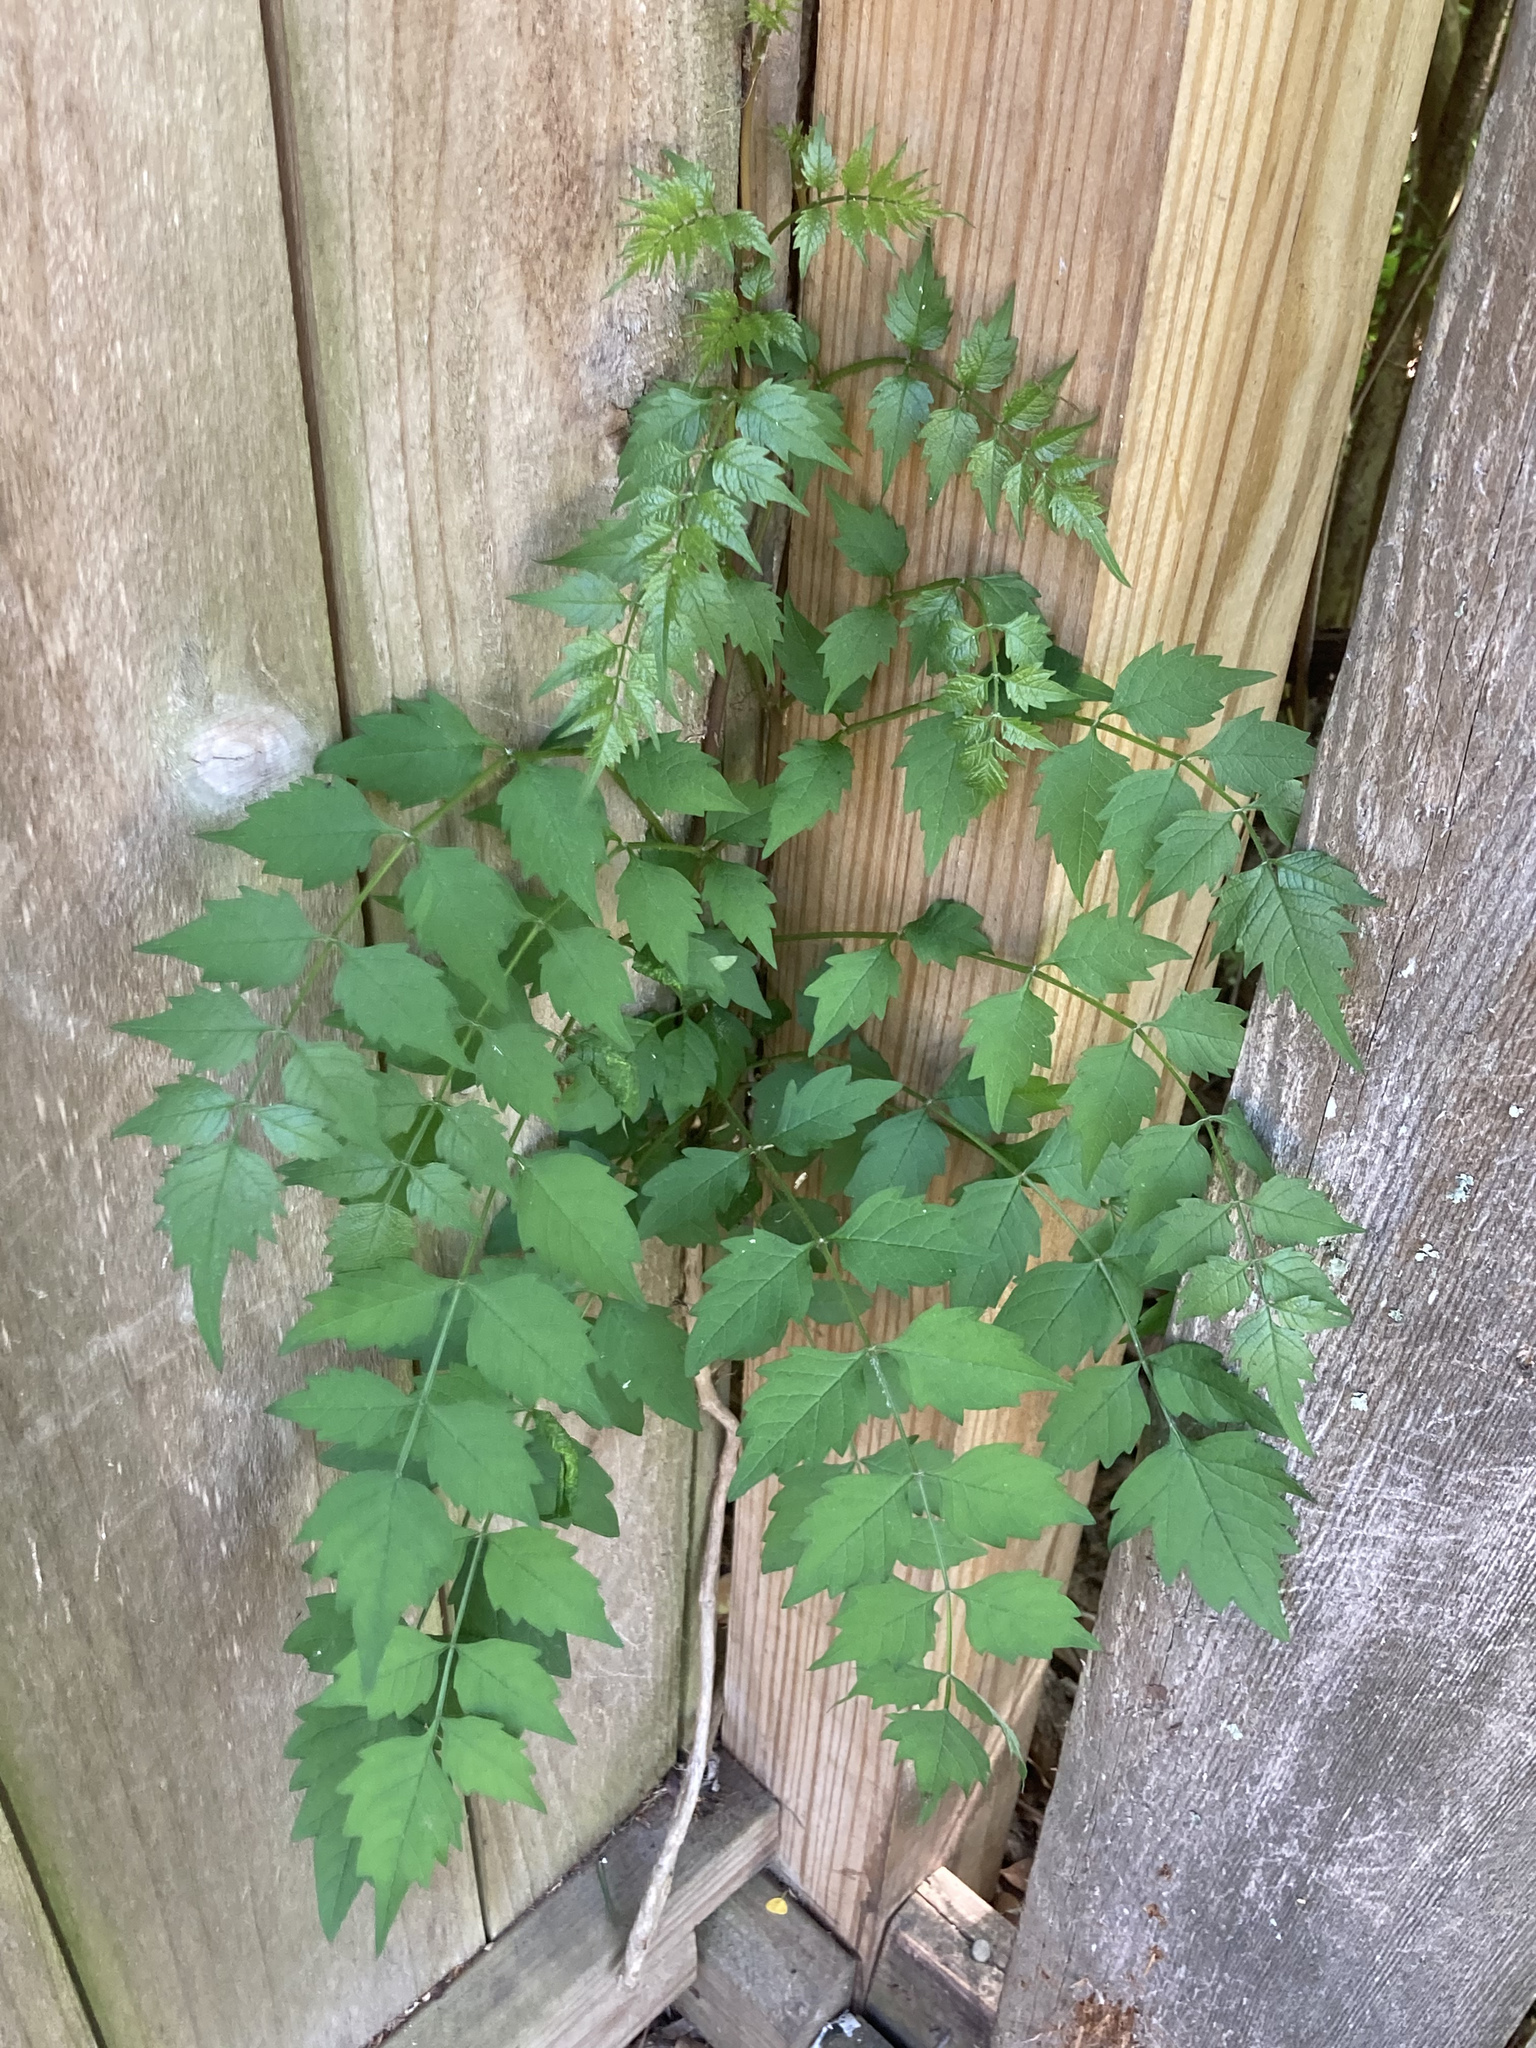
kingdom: Plantae
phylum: Tracheophyta
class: Magnoliopsida
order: Lamiales
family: Bignoniaceae
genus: Campsis
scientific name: Campsis radicans
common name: Trumpet-creeper
